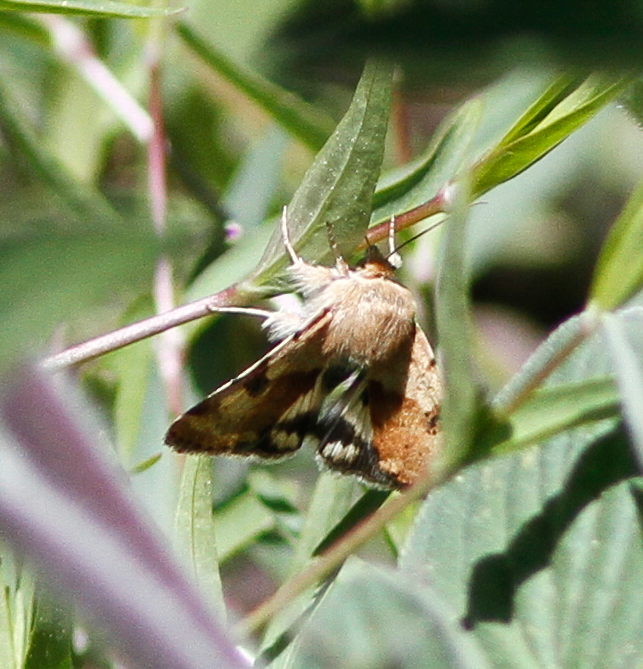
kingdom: Animalia
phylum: Arthropoda
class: Insecta
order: Lepidoptera
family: Noctuidae
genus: Heliothis
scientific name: Heliothis phloxiphaga
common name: Darker spotted straw moth
